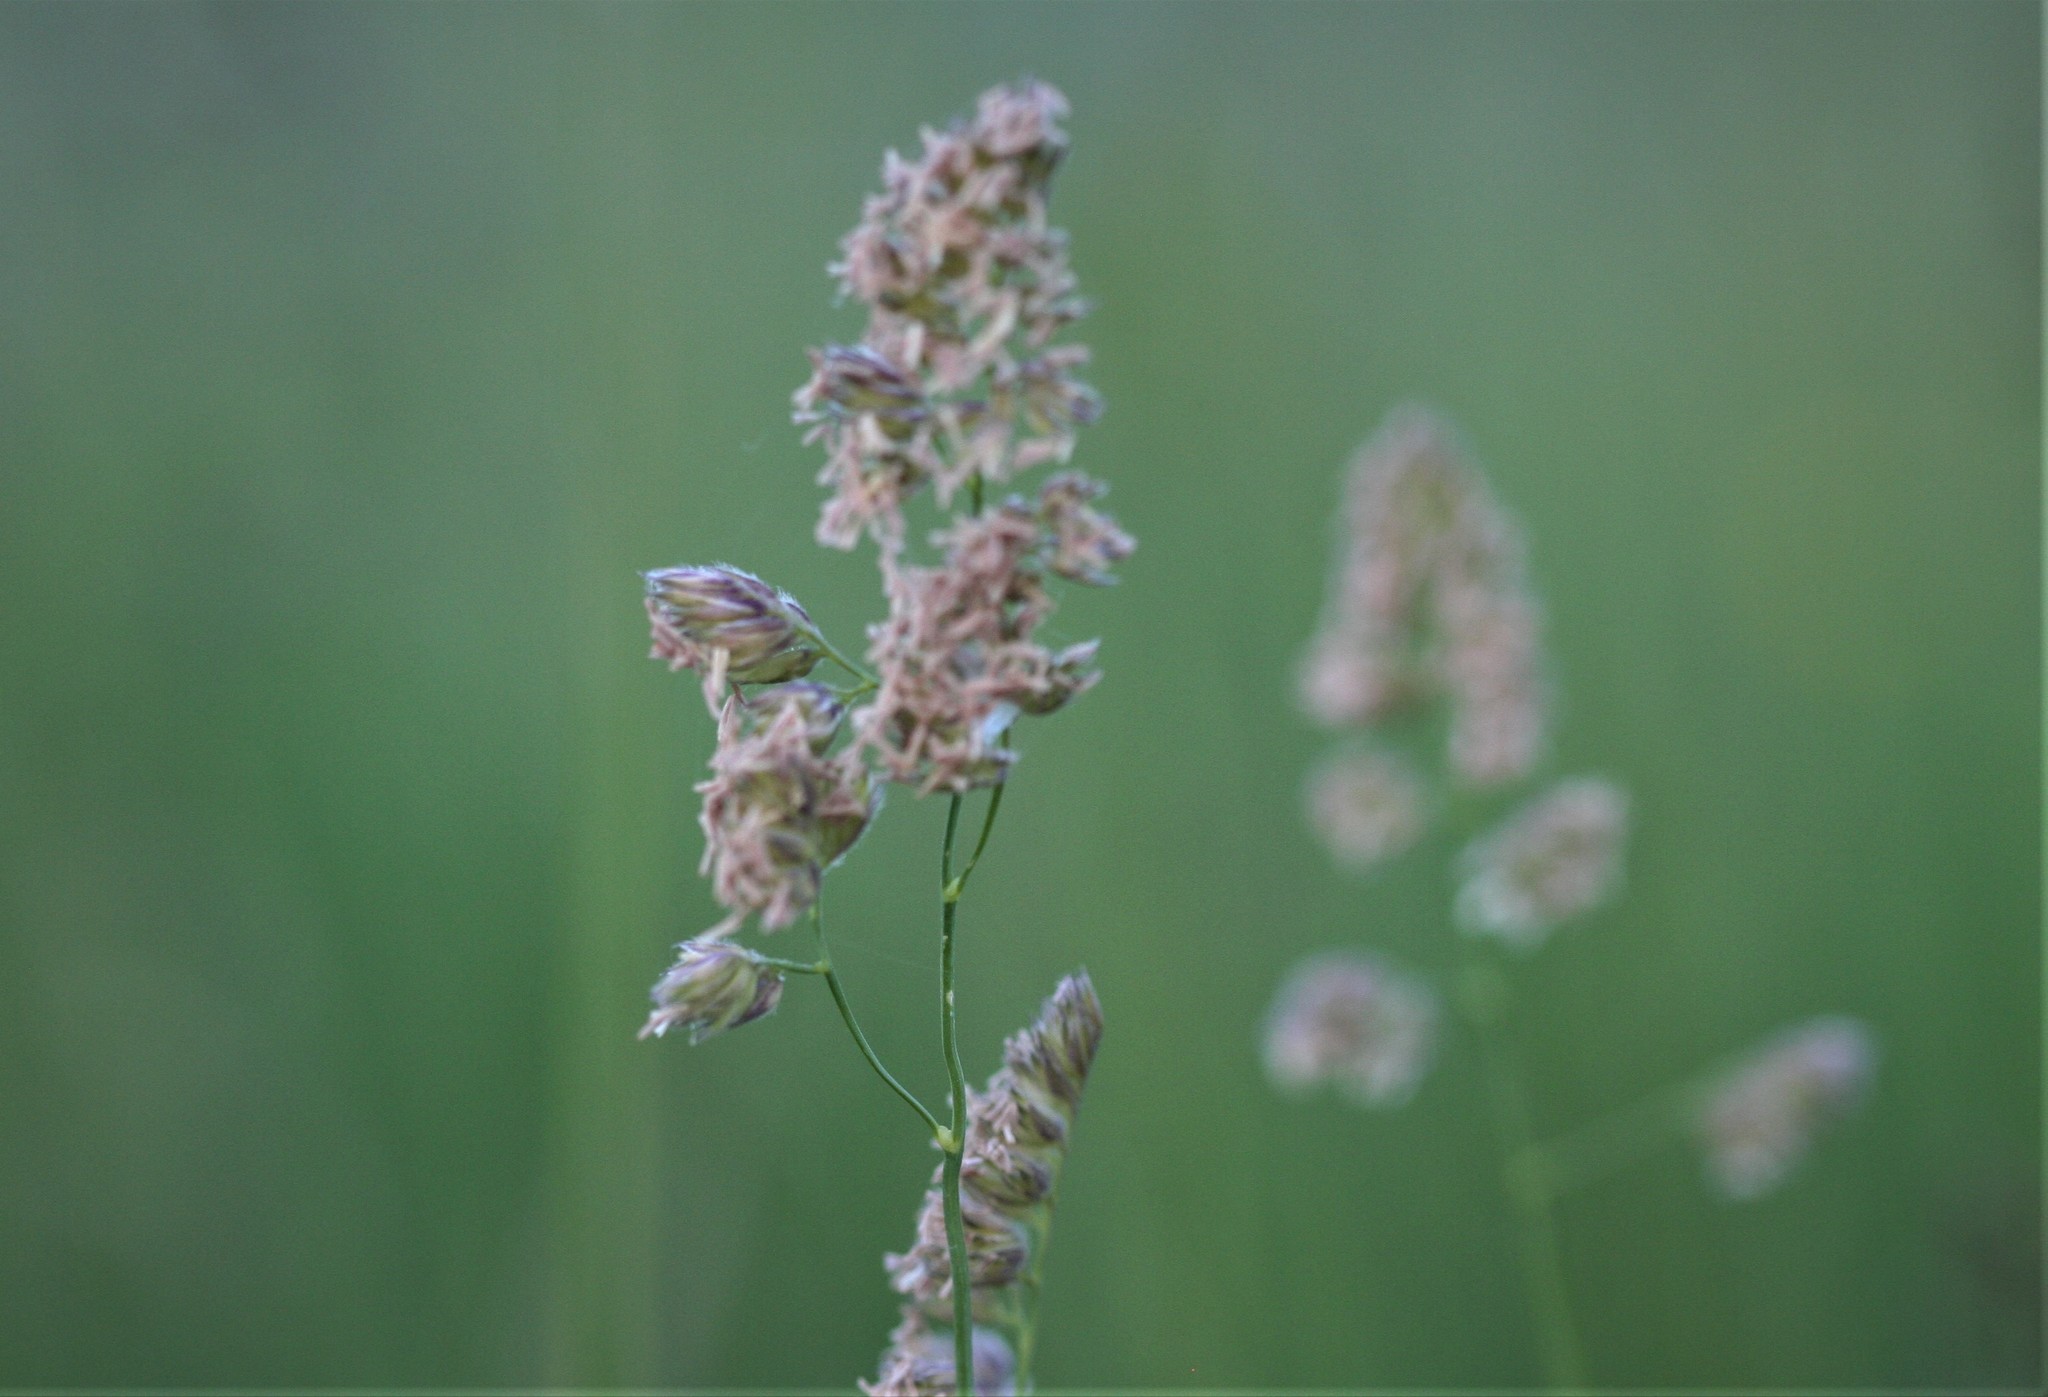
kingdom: Plantae
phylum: Tracheophyta
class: Liliopsida
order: Poales
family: Poaceae
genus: Dactylis
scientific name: Dactylis glomerata
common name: Orchardgrass
